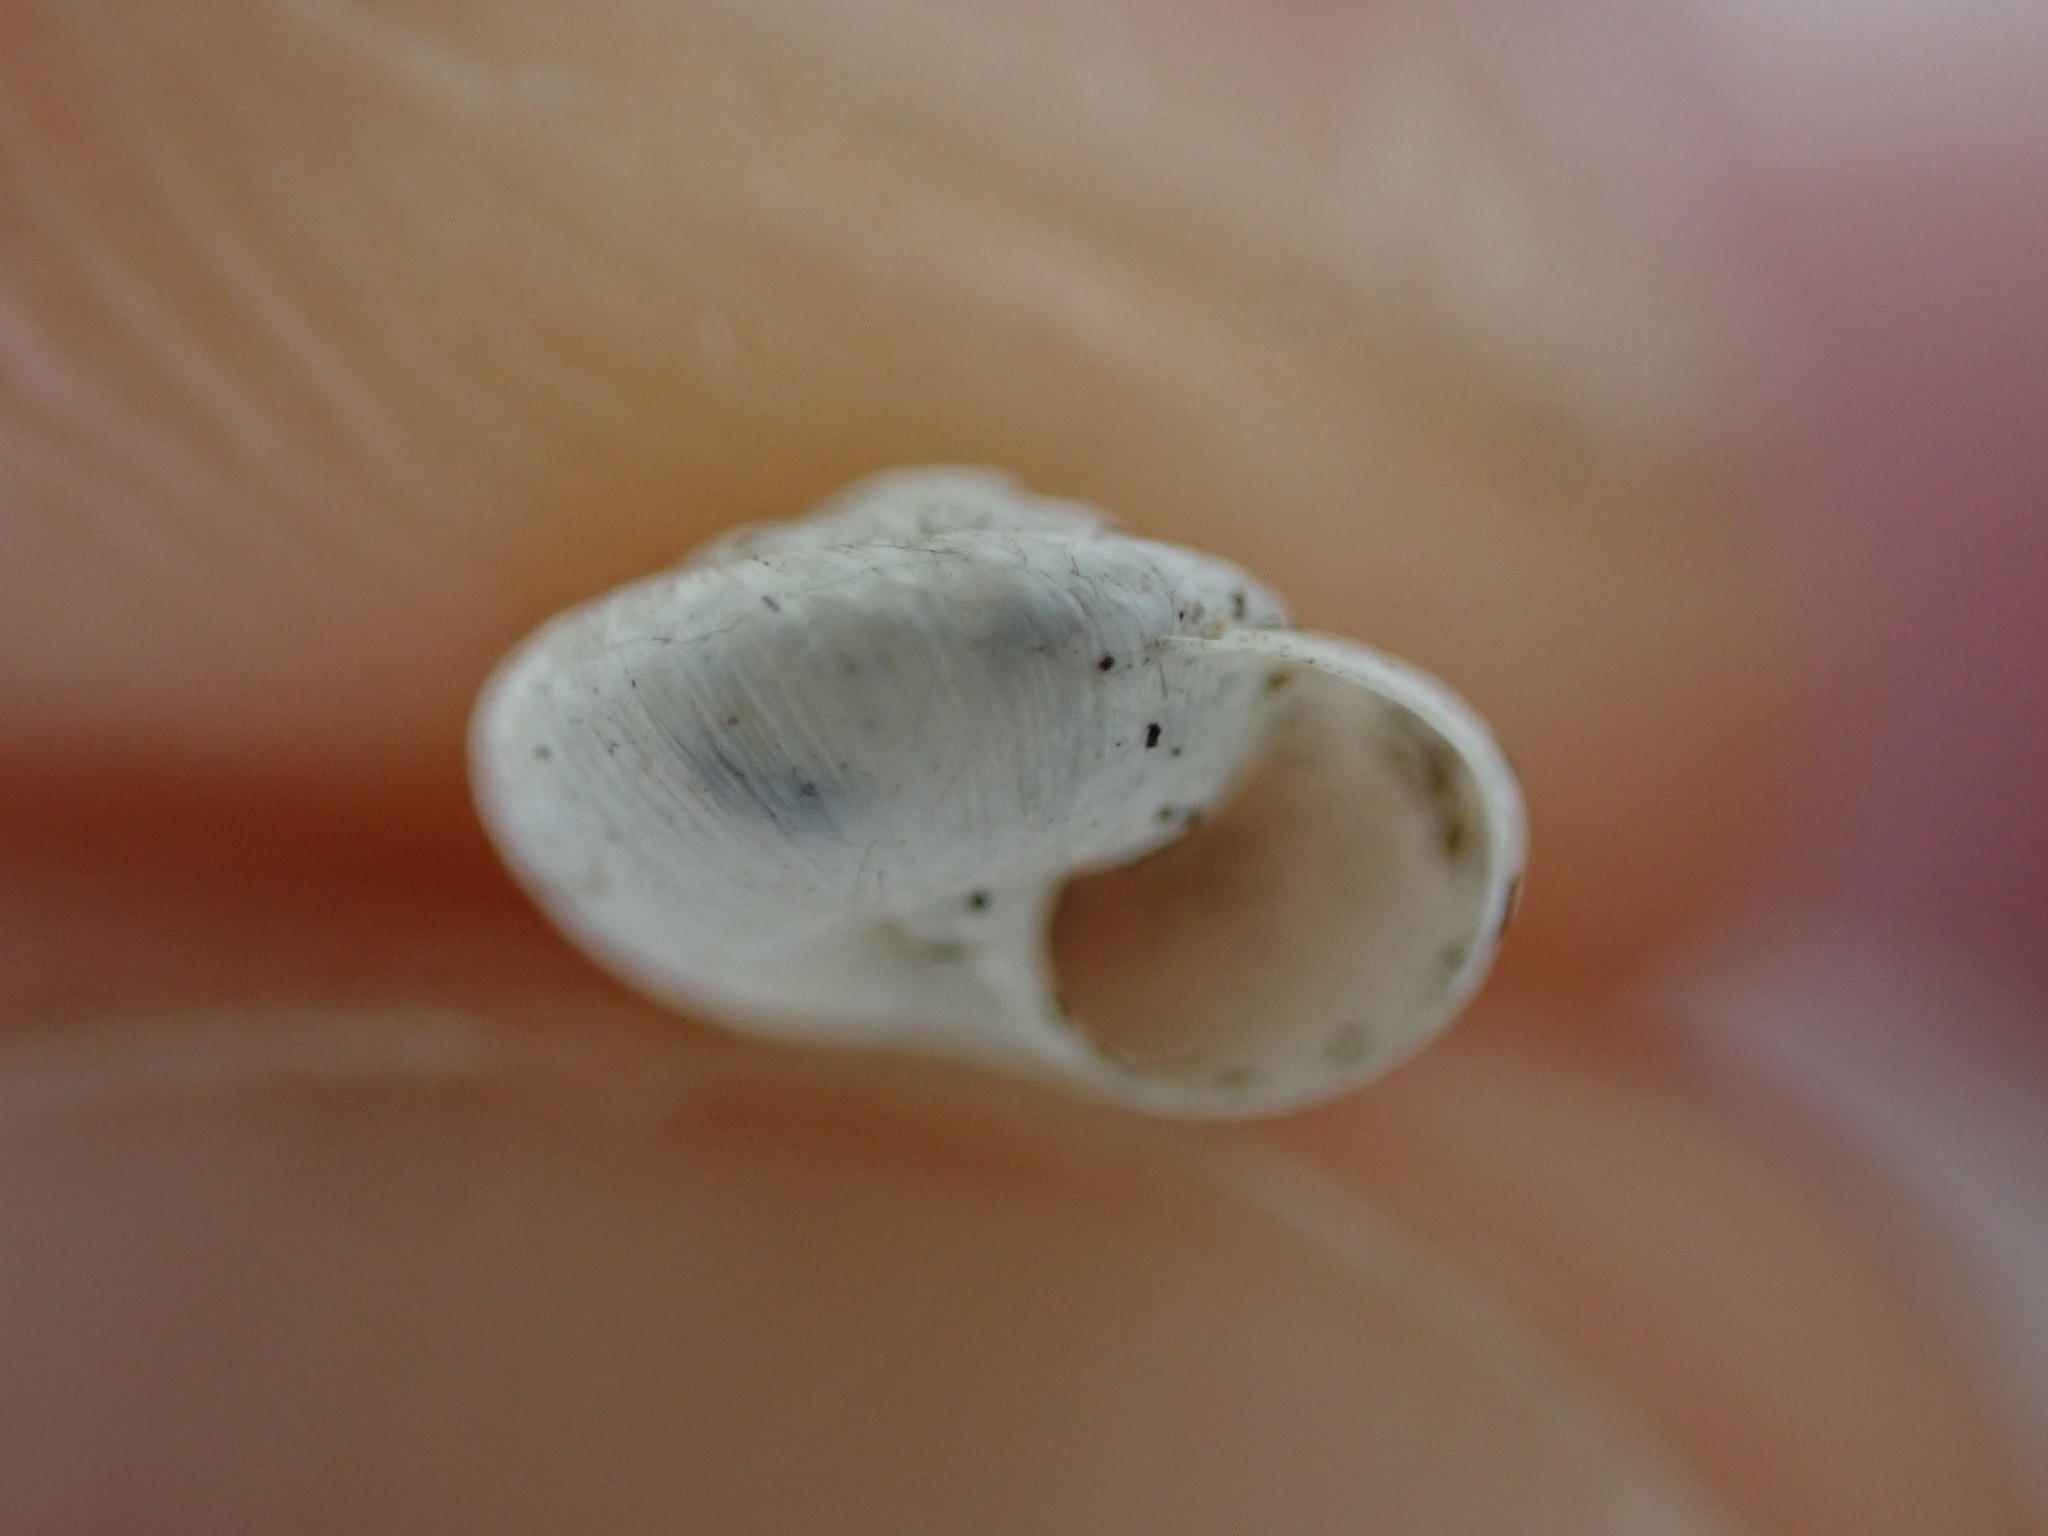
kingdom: Animalia
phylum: Mollusca
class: Gastropoda
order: Stylommatophora
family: Geomitridae
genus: Xerotricha
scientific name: Xerotricha conspurcata
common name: Snail
